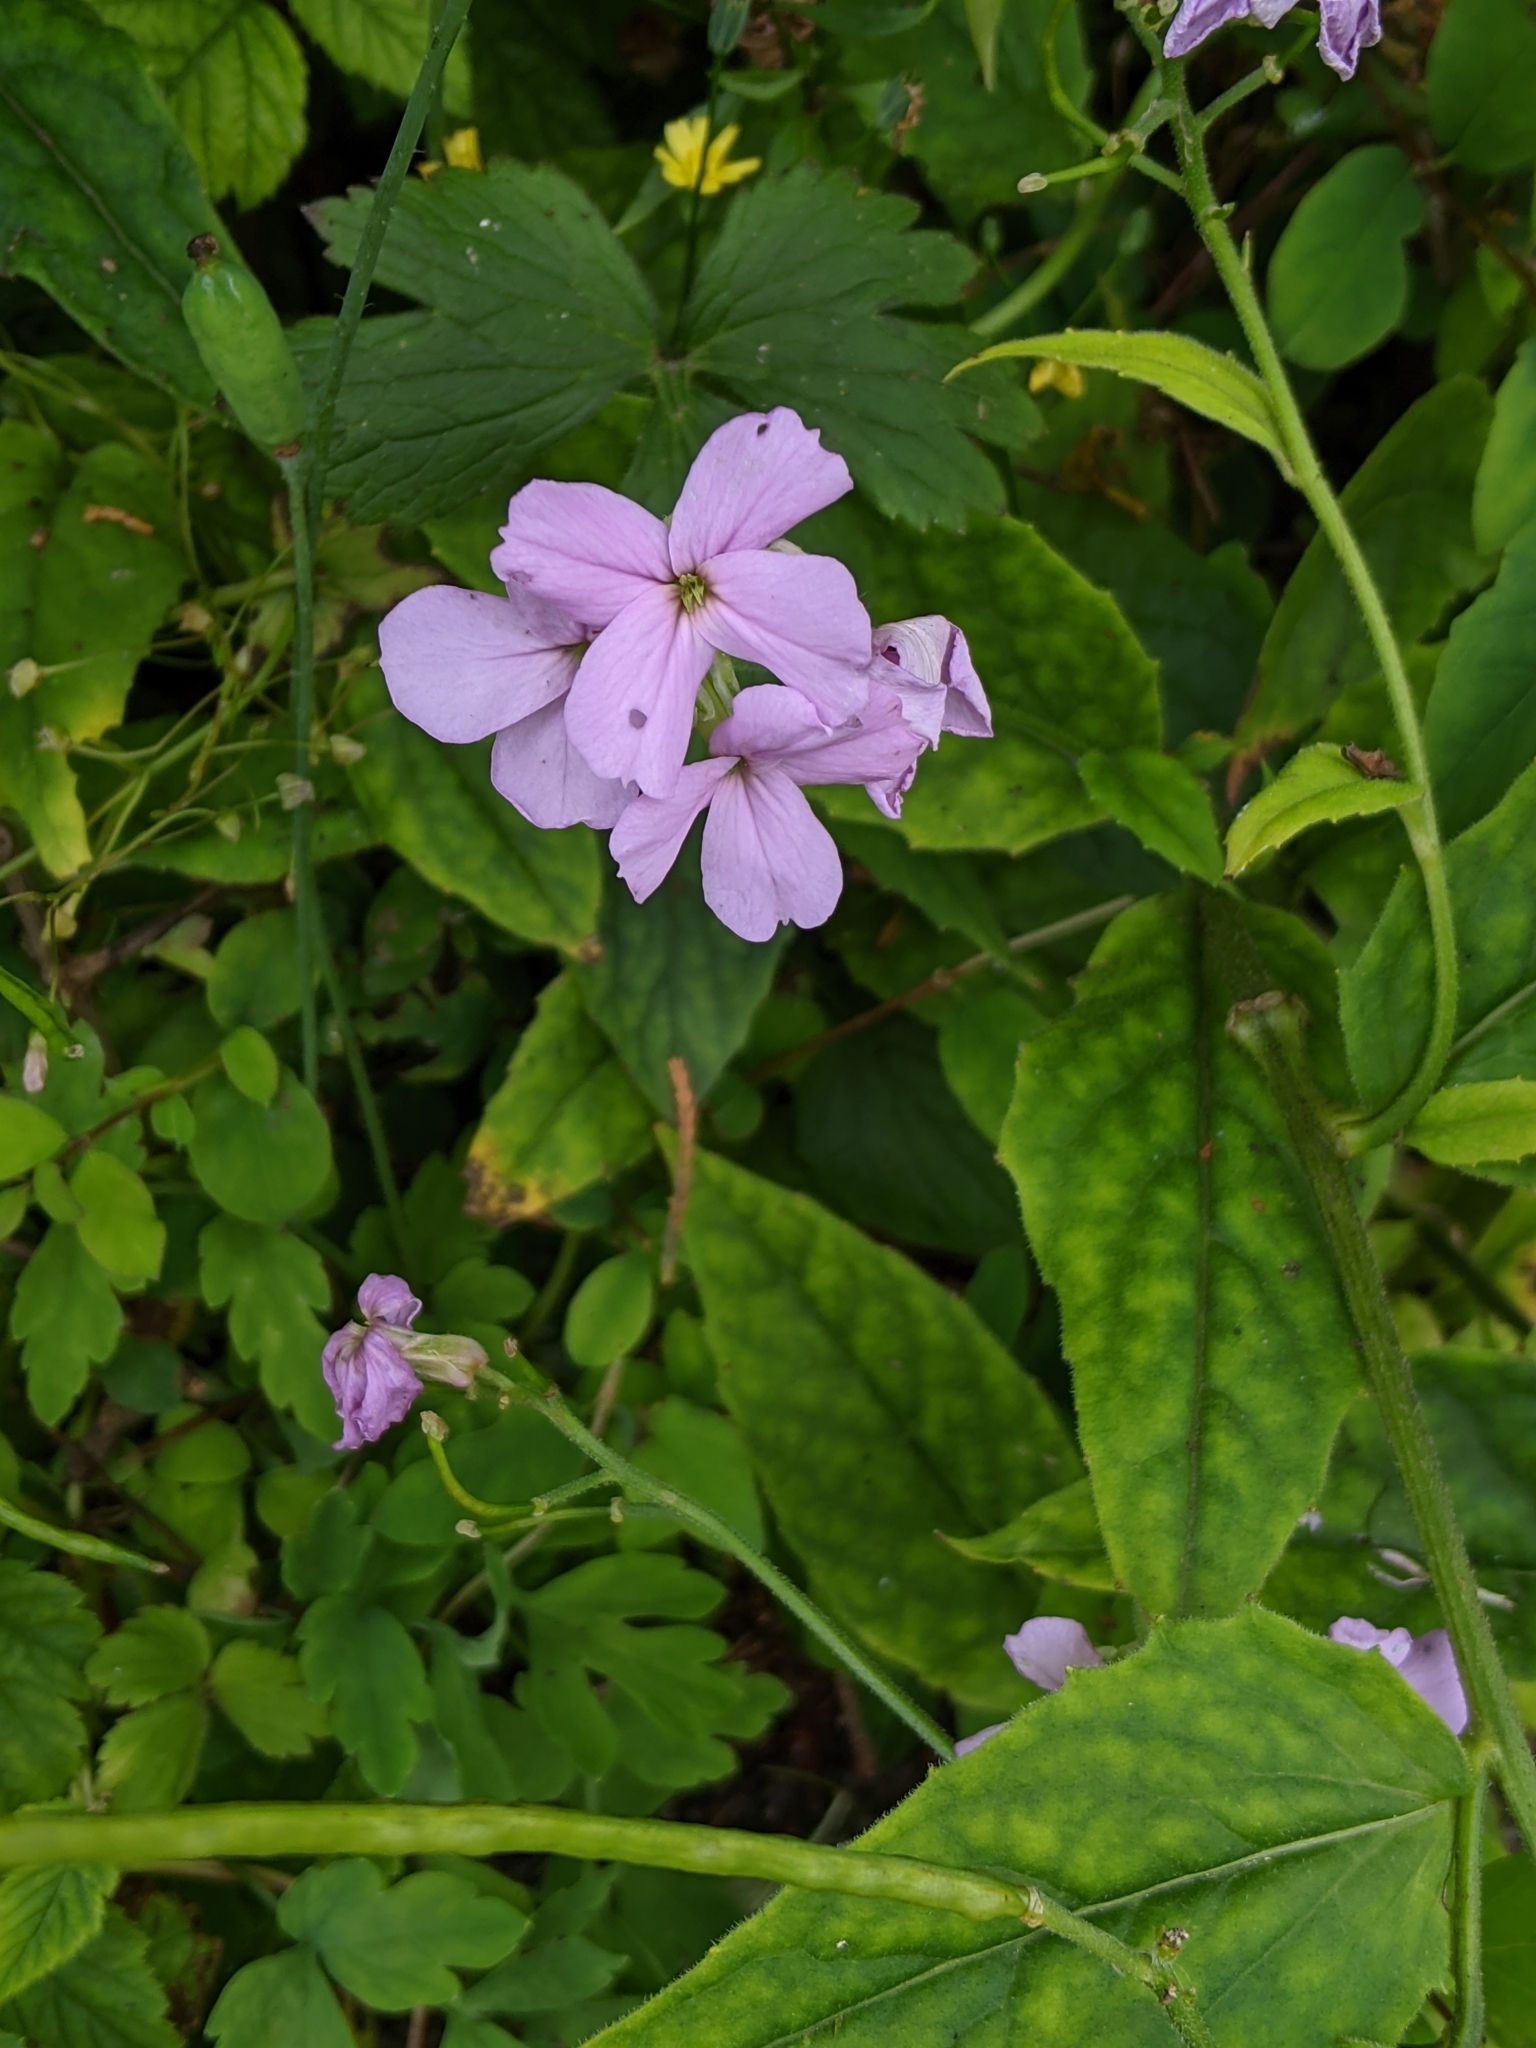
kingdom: Plantae
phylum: Tracheophyta
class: Magnoliopsida
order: Brassicales
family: Brassicaceae
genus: Hesperis
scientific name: Hesperis matronalis
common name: Dame's-violet
